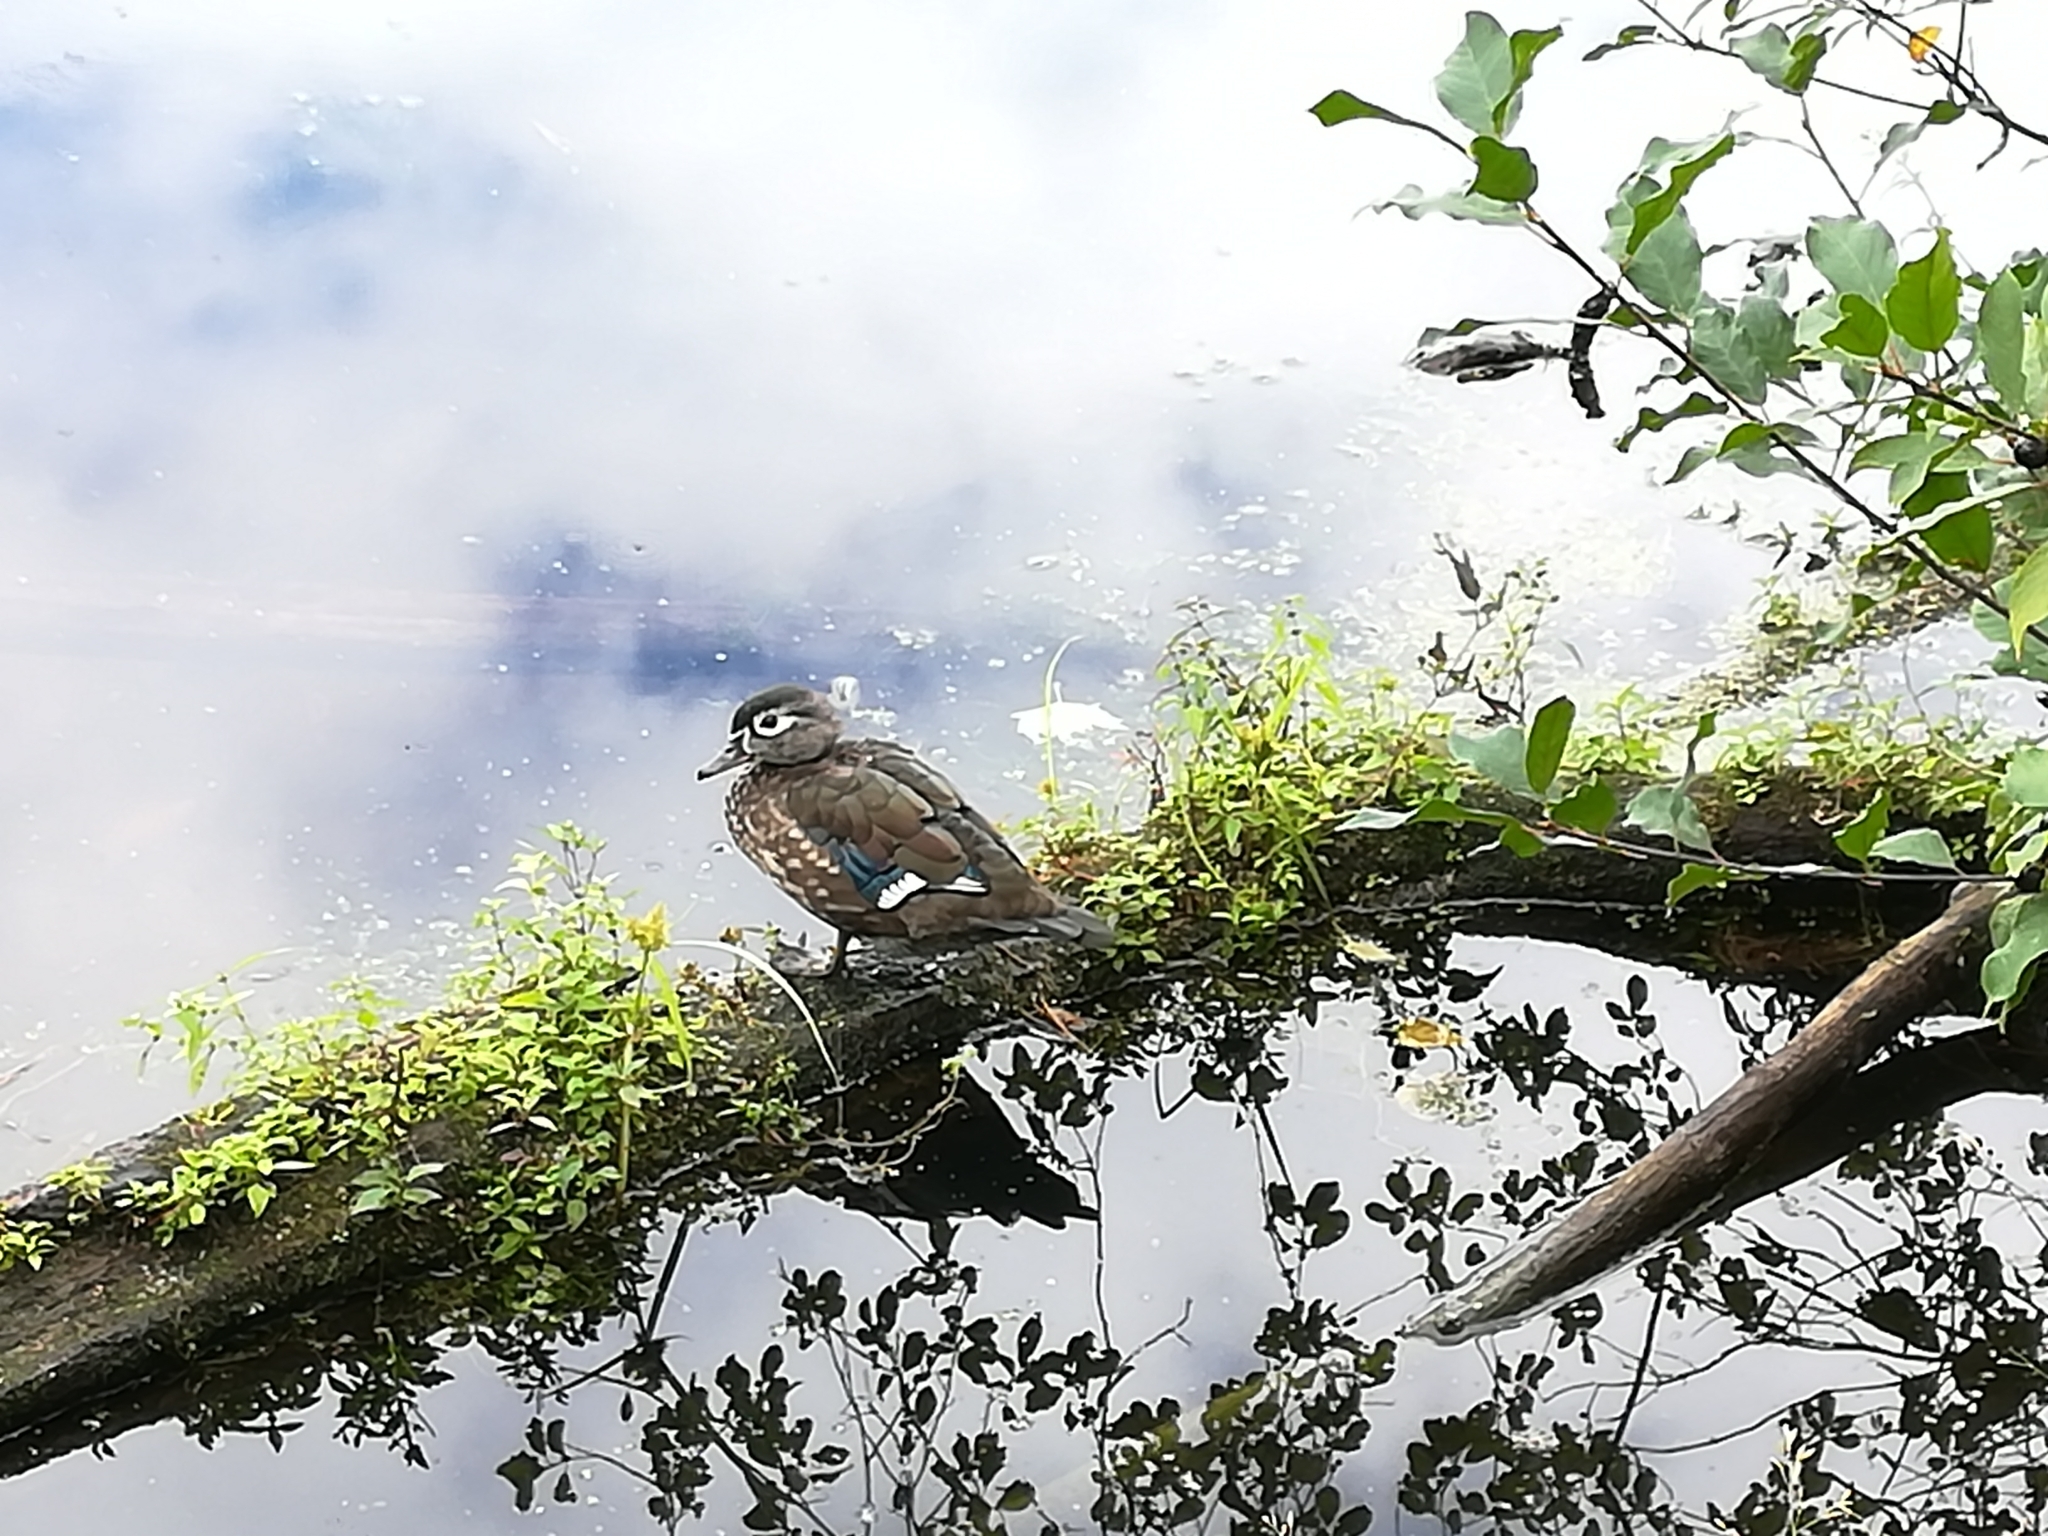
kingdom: Animalia
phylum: Chordata
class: Aves
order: Anseriformes
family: Anatidae
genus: Aix
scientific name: Aix sponsa
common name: Wood duck
